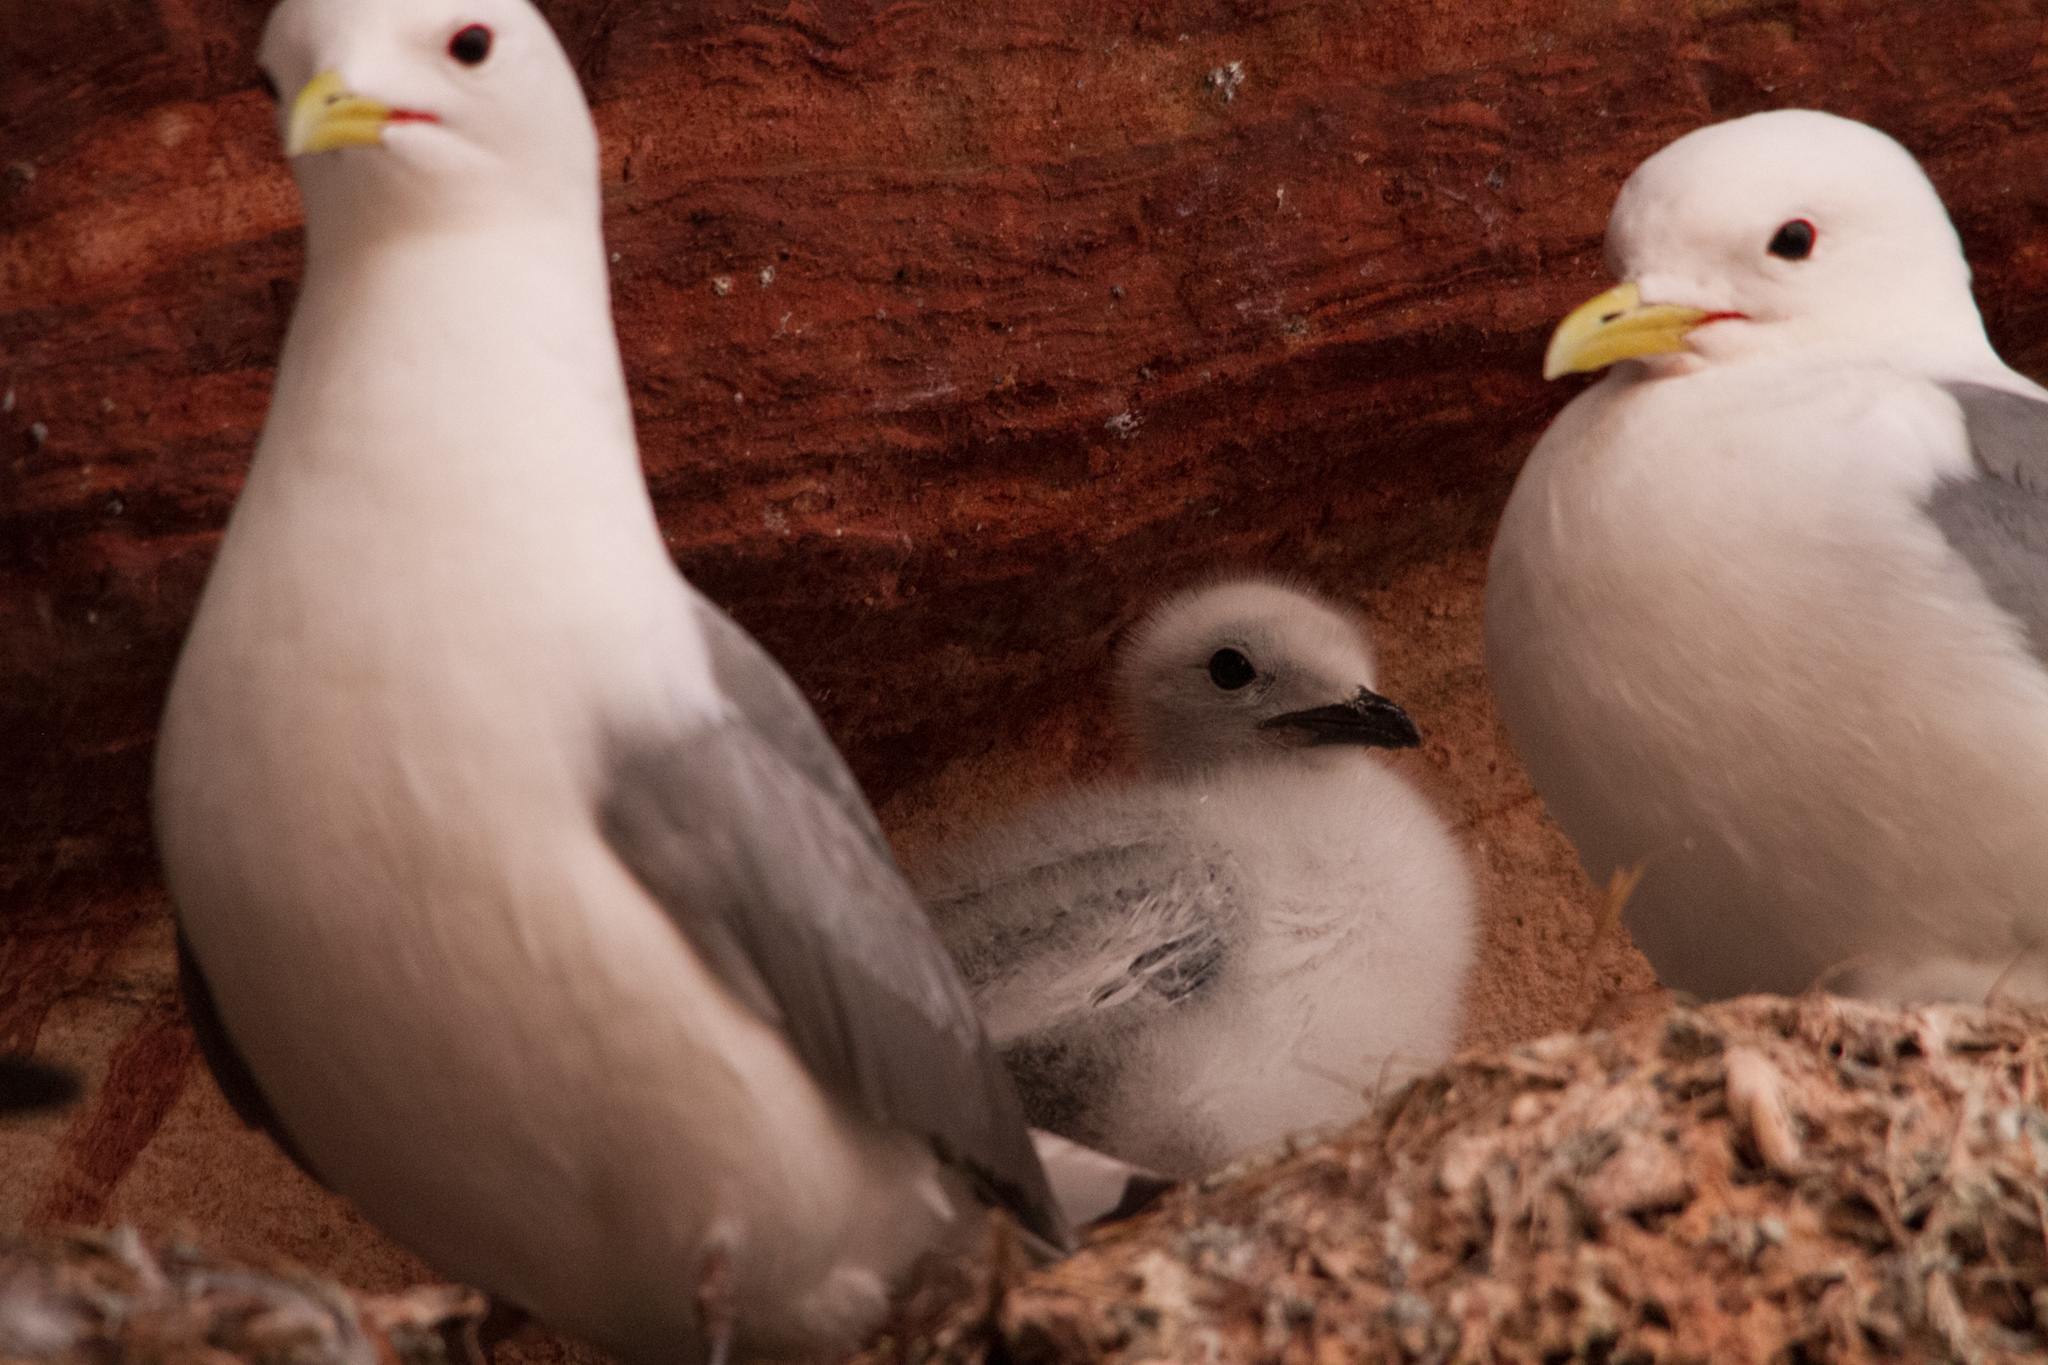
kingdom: Animalia
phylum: Chordata
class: Aves
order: Charadriiformes
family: Laridae
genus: Rissa
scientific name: Rissa tridactyla
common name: Black-legged kittiwake
